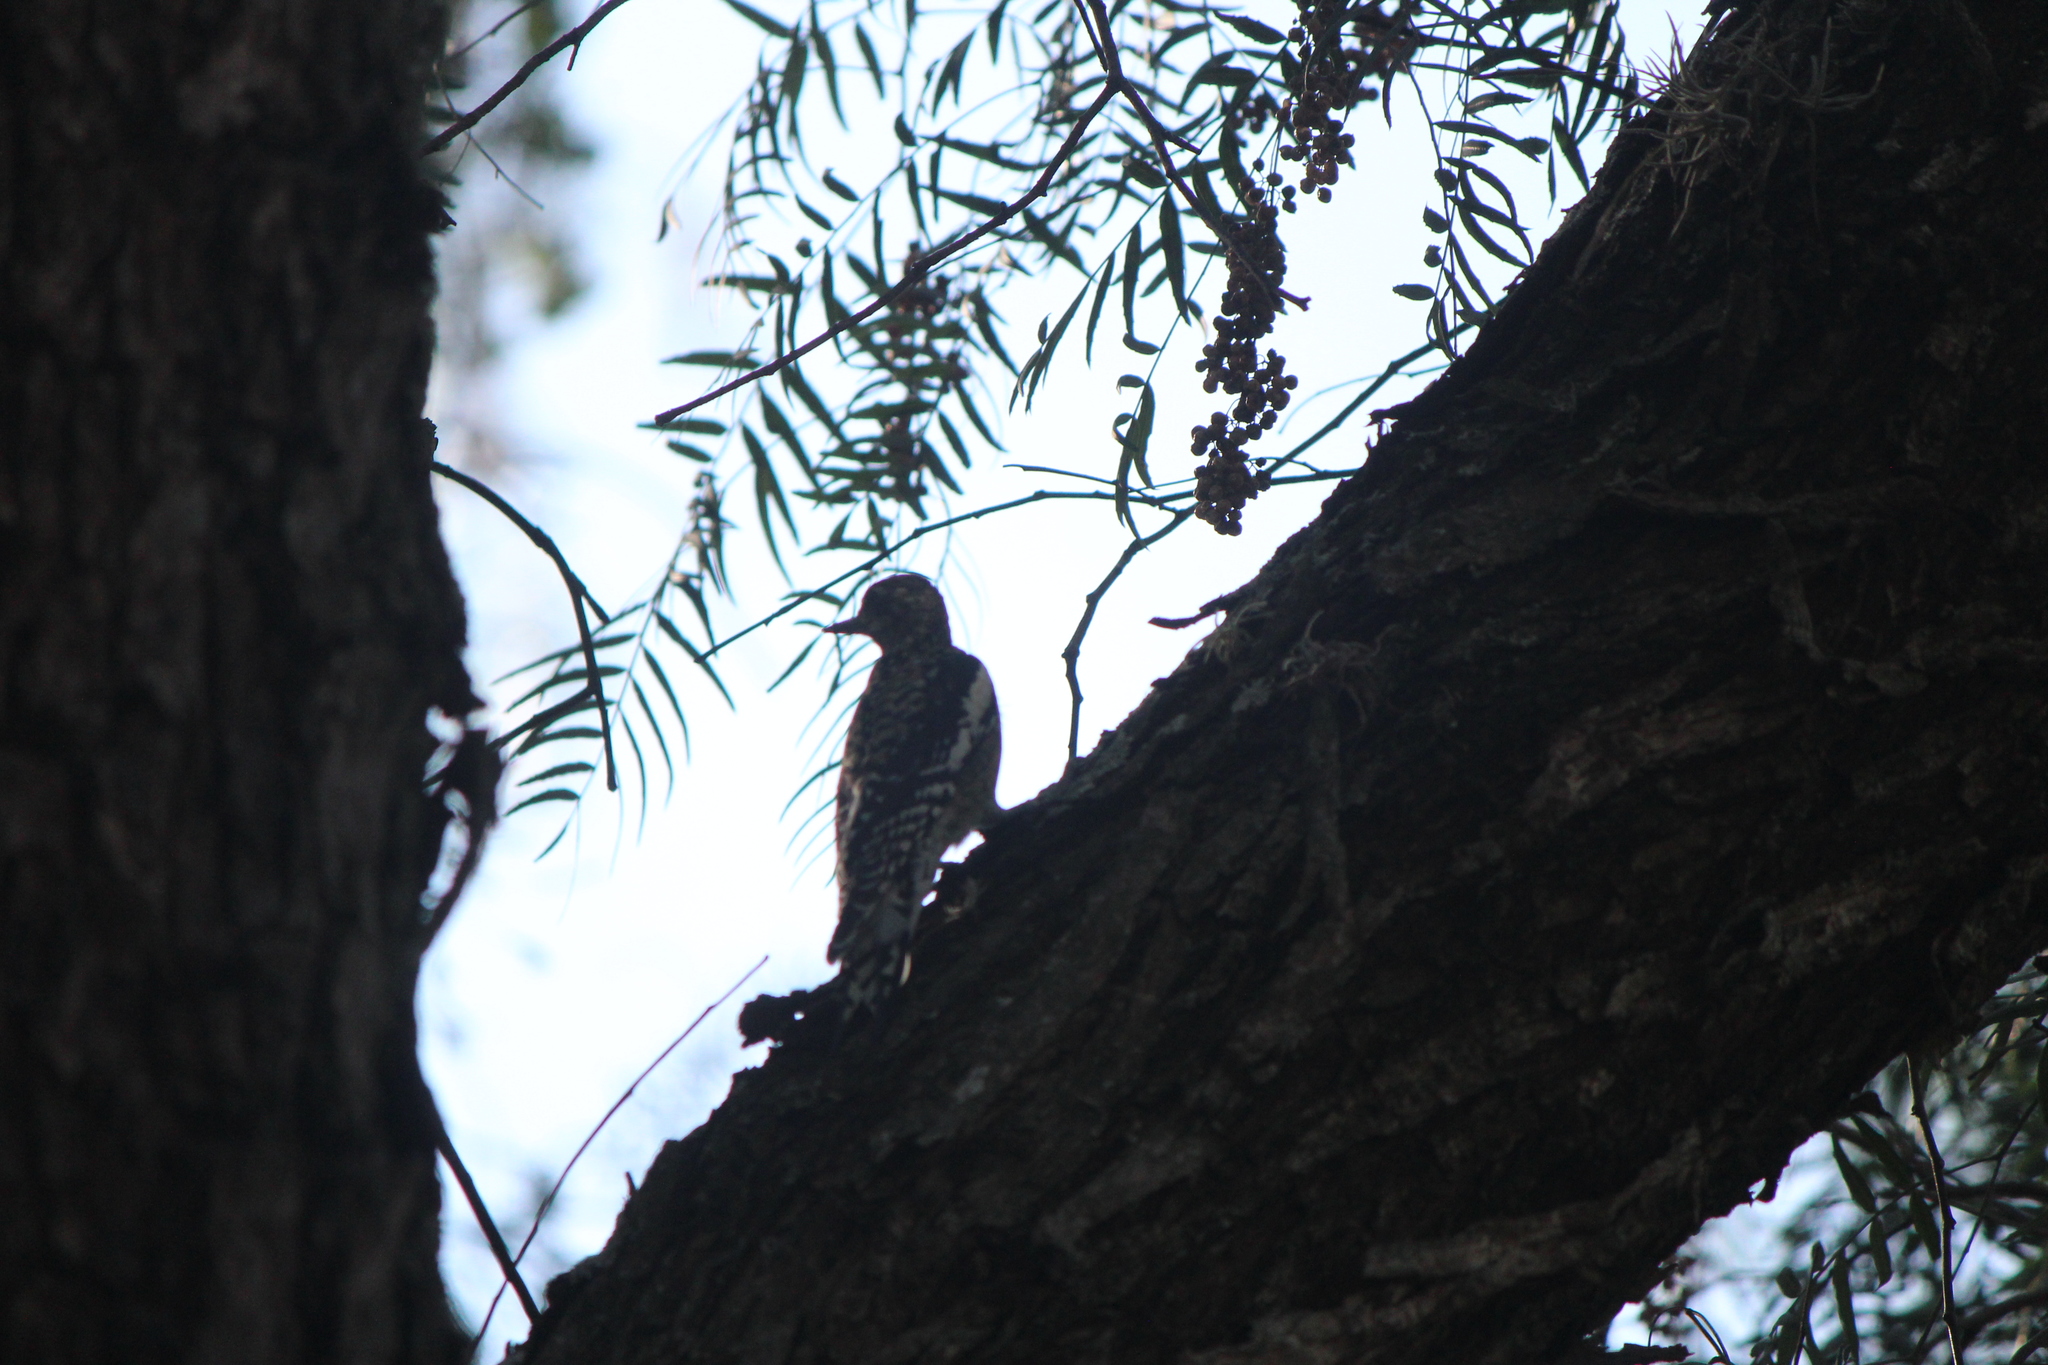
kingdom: Animalia
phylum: Chordata
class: Aves
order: Piciformes
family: Picidae
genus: Sphyrapicus
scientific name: Sphyrapicus varius
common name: Yellow-bellied sapsucker
